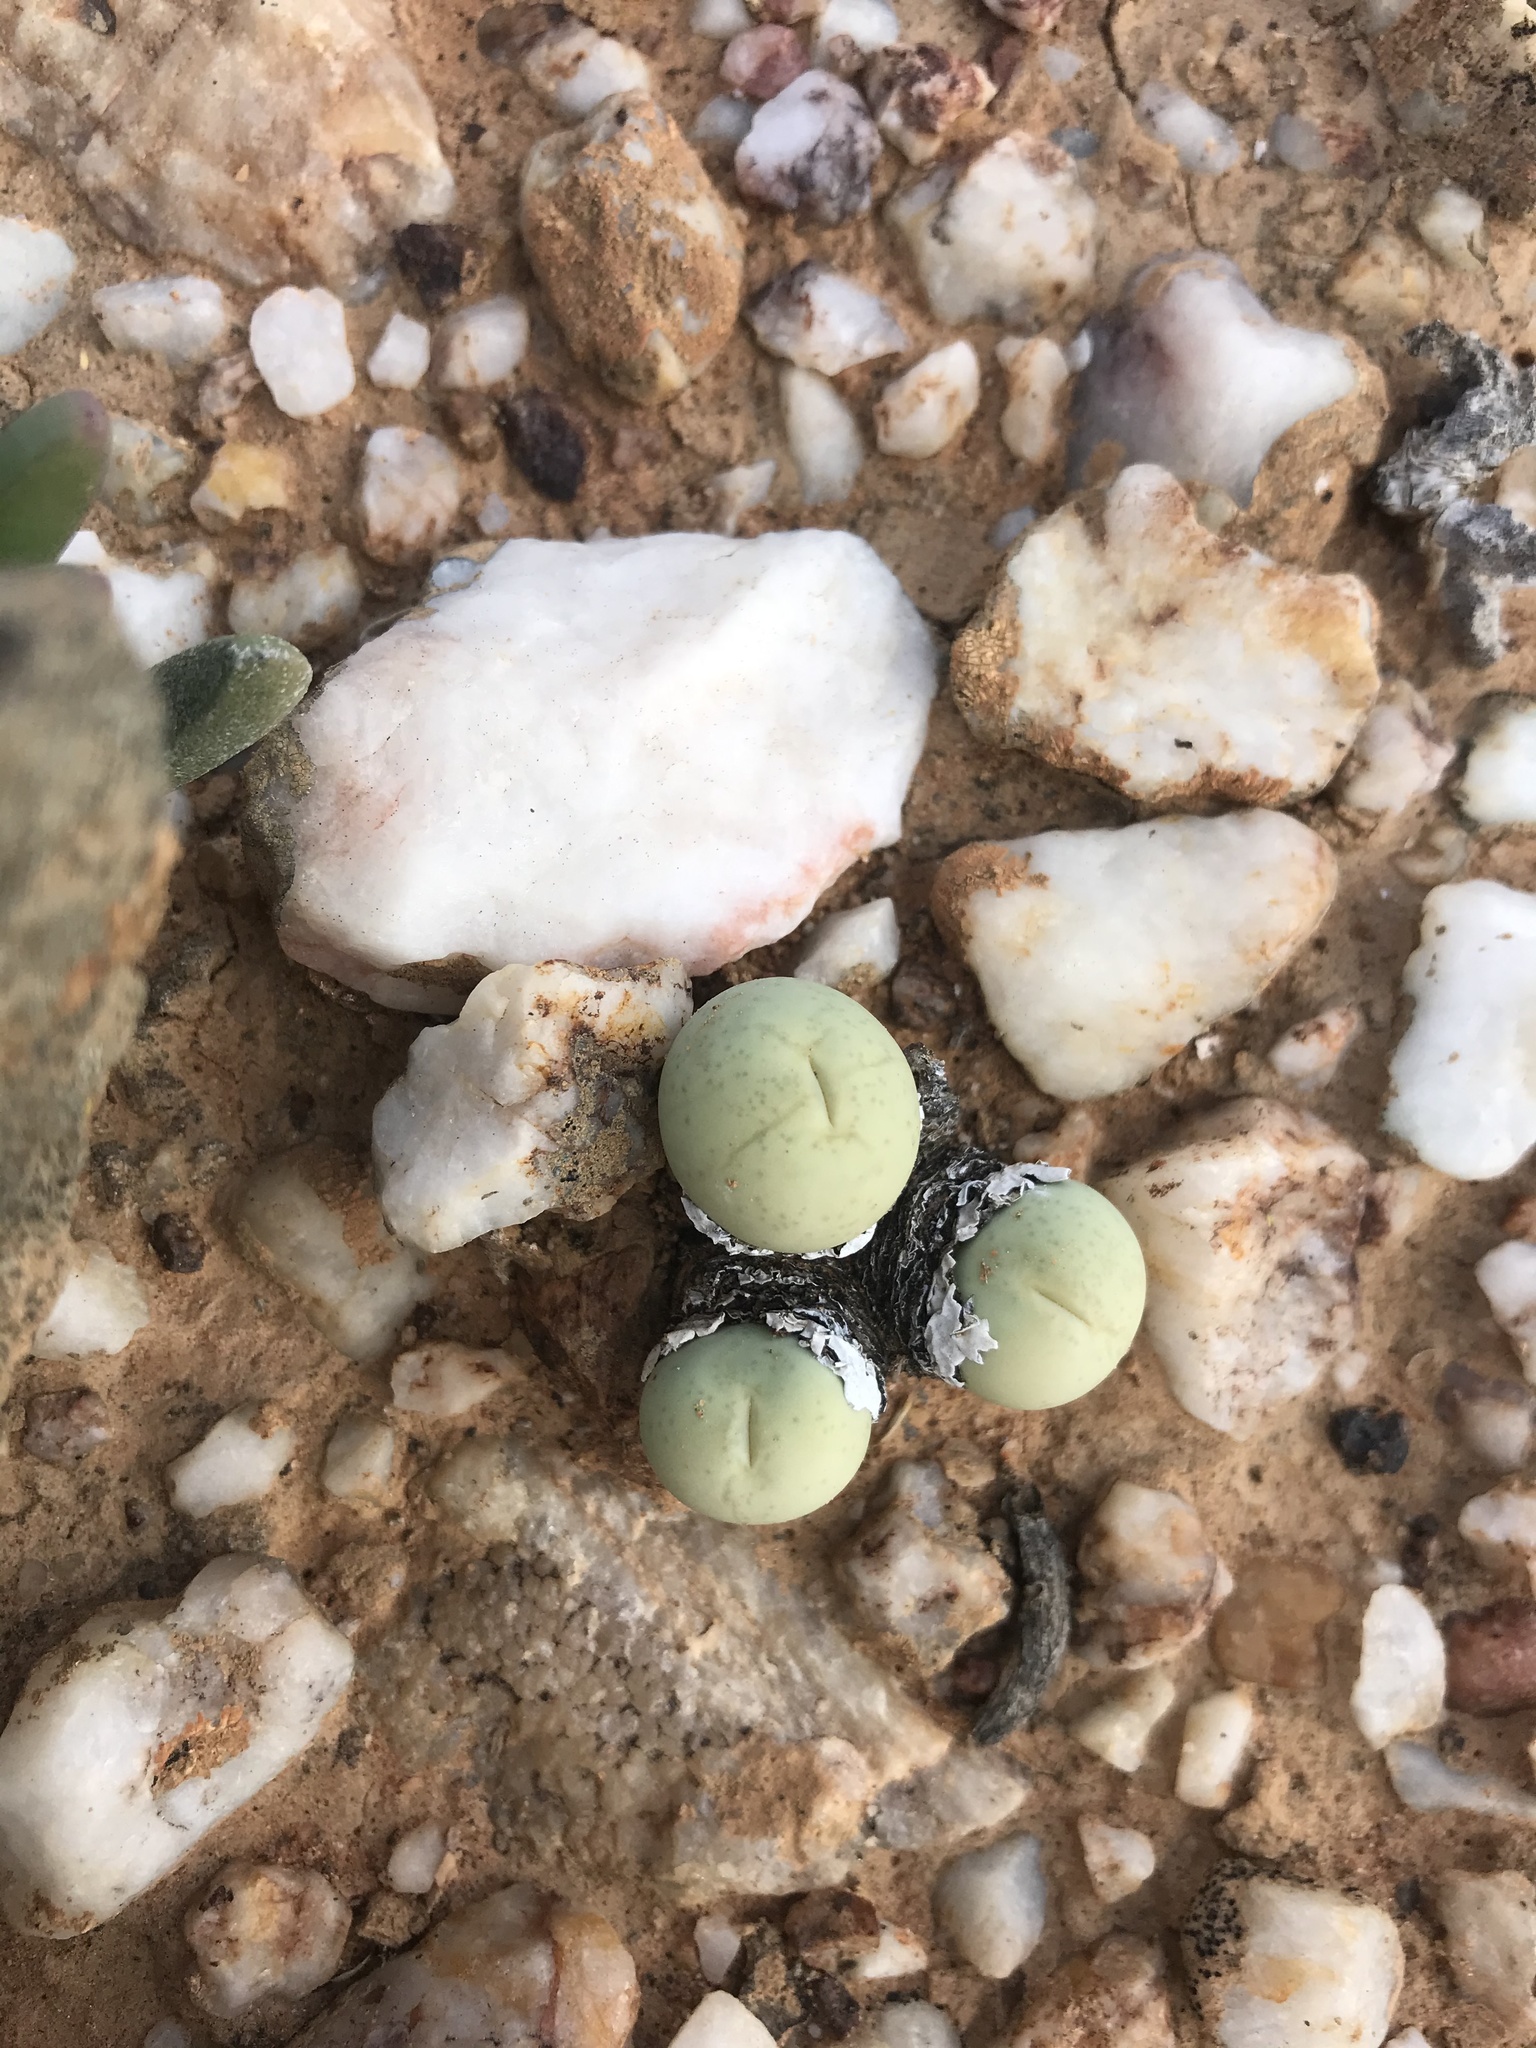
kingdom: Plantae
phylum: Tracheophyta
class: Magnoliopsida
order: Caryophyllales
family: Aizoaceae
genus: Conophytum
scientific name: Conophytum calculus
